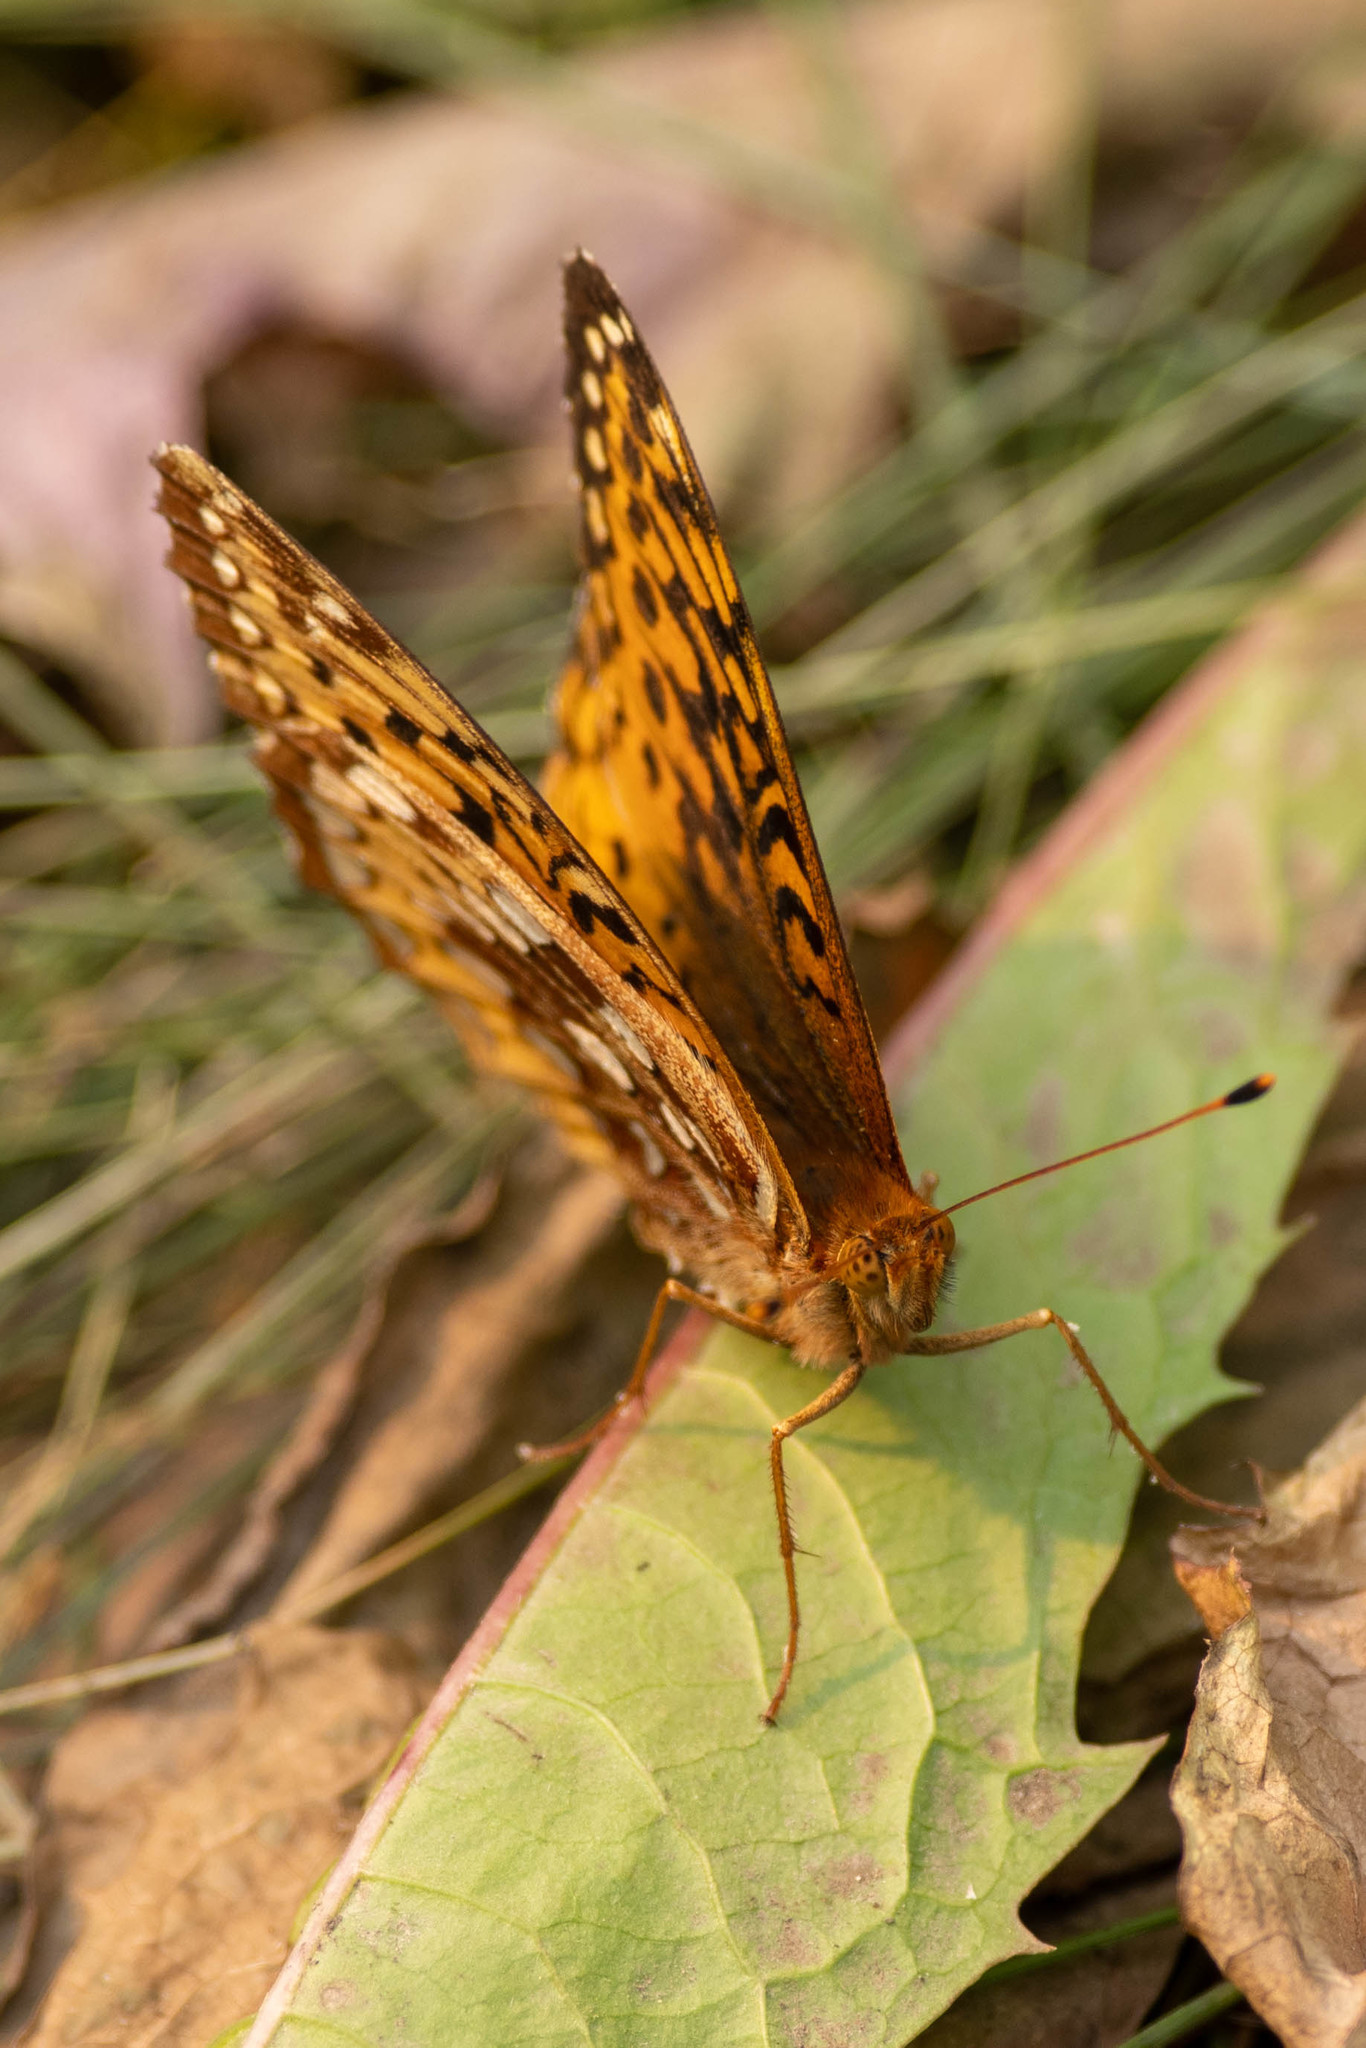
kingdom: Animalia
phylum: Arthropoda
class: Insecta
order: Lepidoptera
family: Nymphalidae
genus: Speyeria
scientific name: Speyeria cybele
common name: Great spangled fritillary
